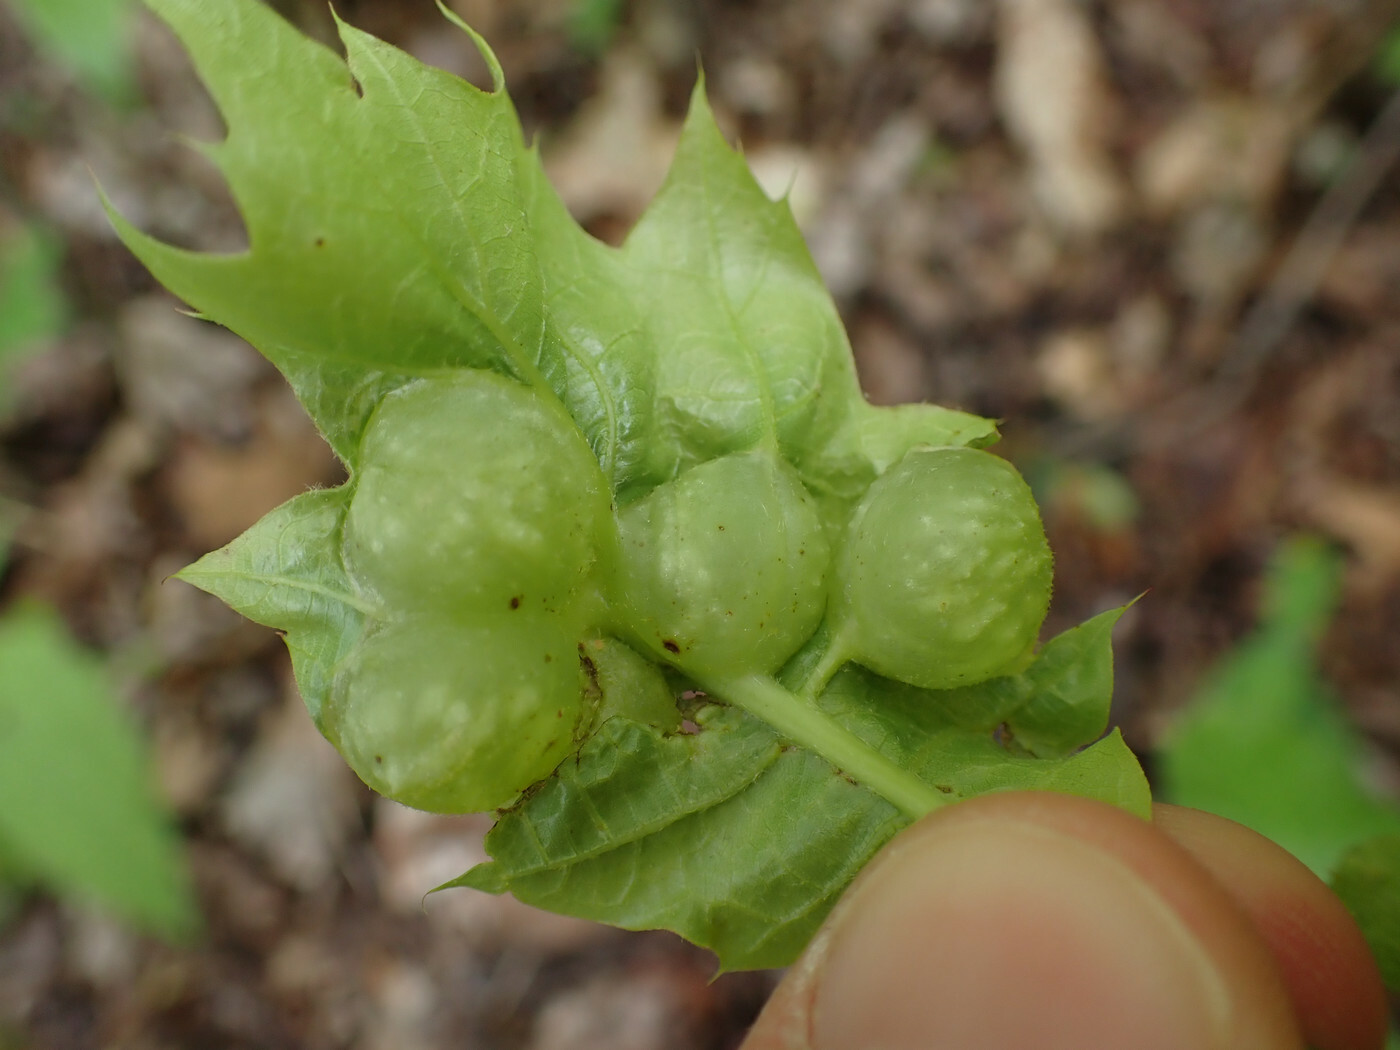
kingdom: Animalia
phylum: Arthropoda
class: Insecta
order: Hymenoptera
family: Cynipidae
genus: Dryocosmus
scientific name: Dryocosmus quercuspalustris
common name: Succulent oak gall wasp
